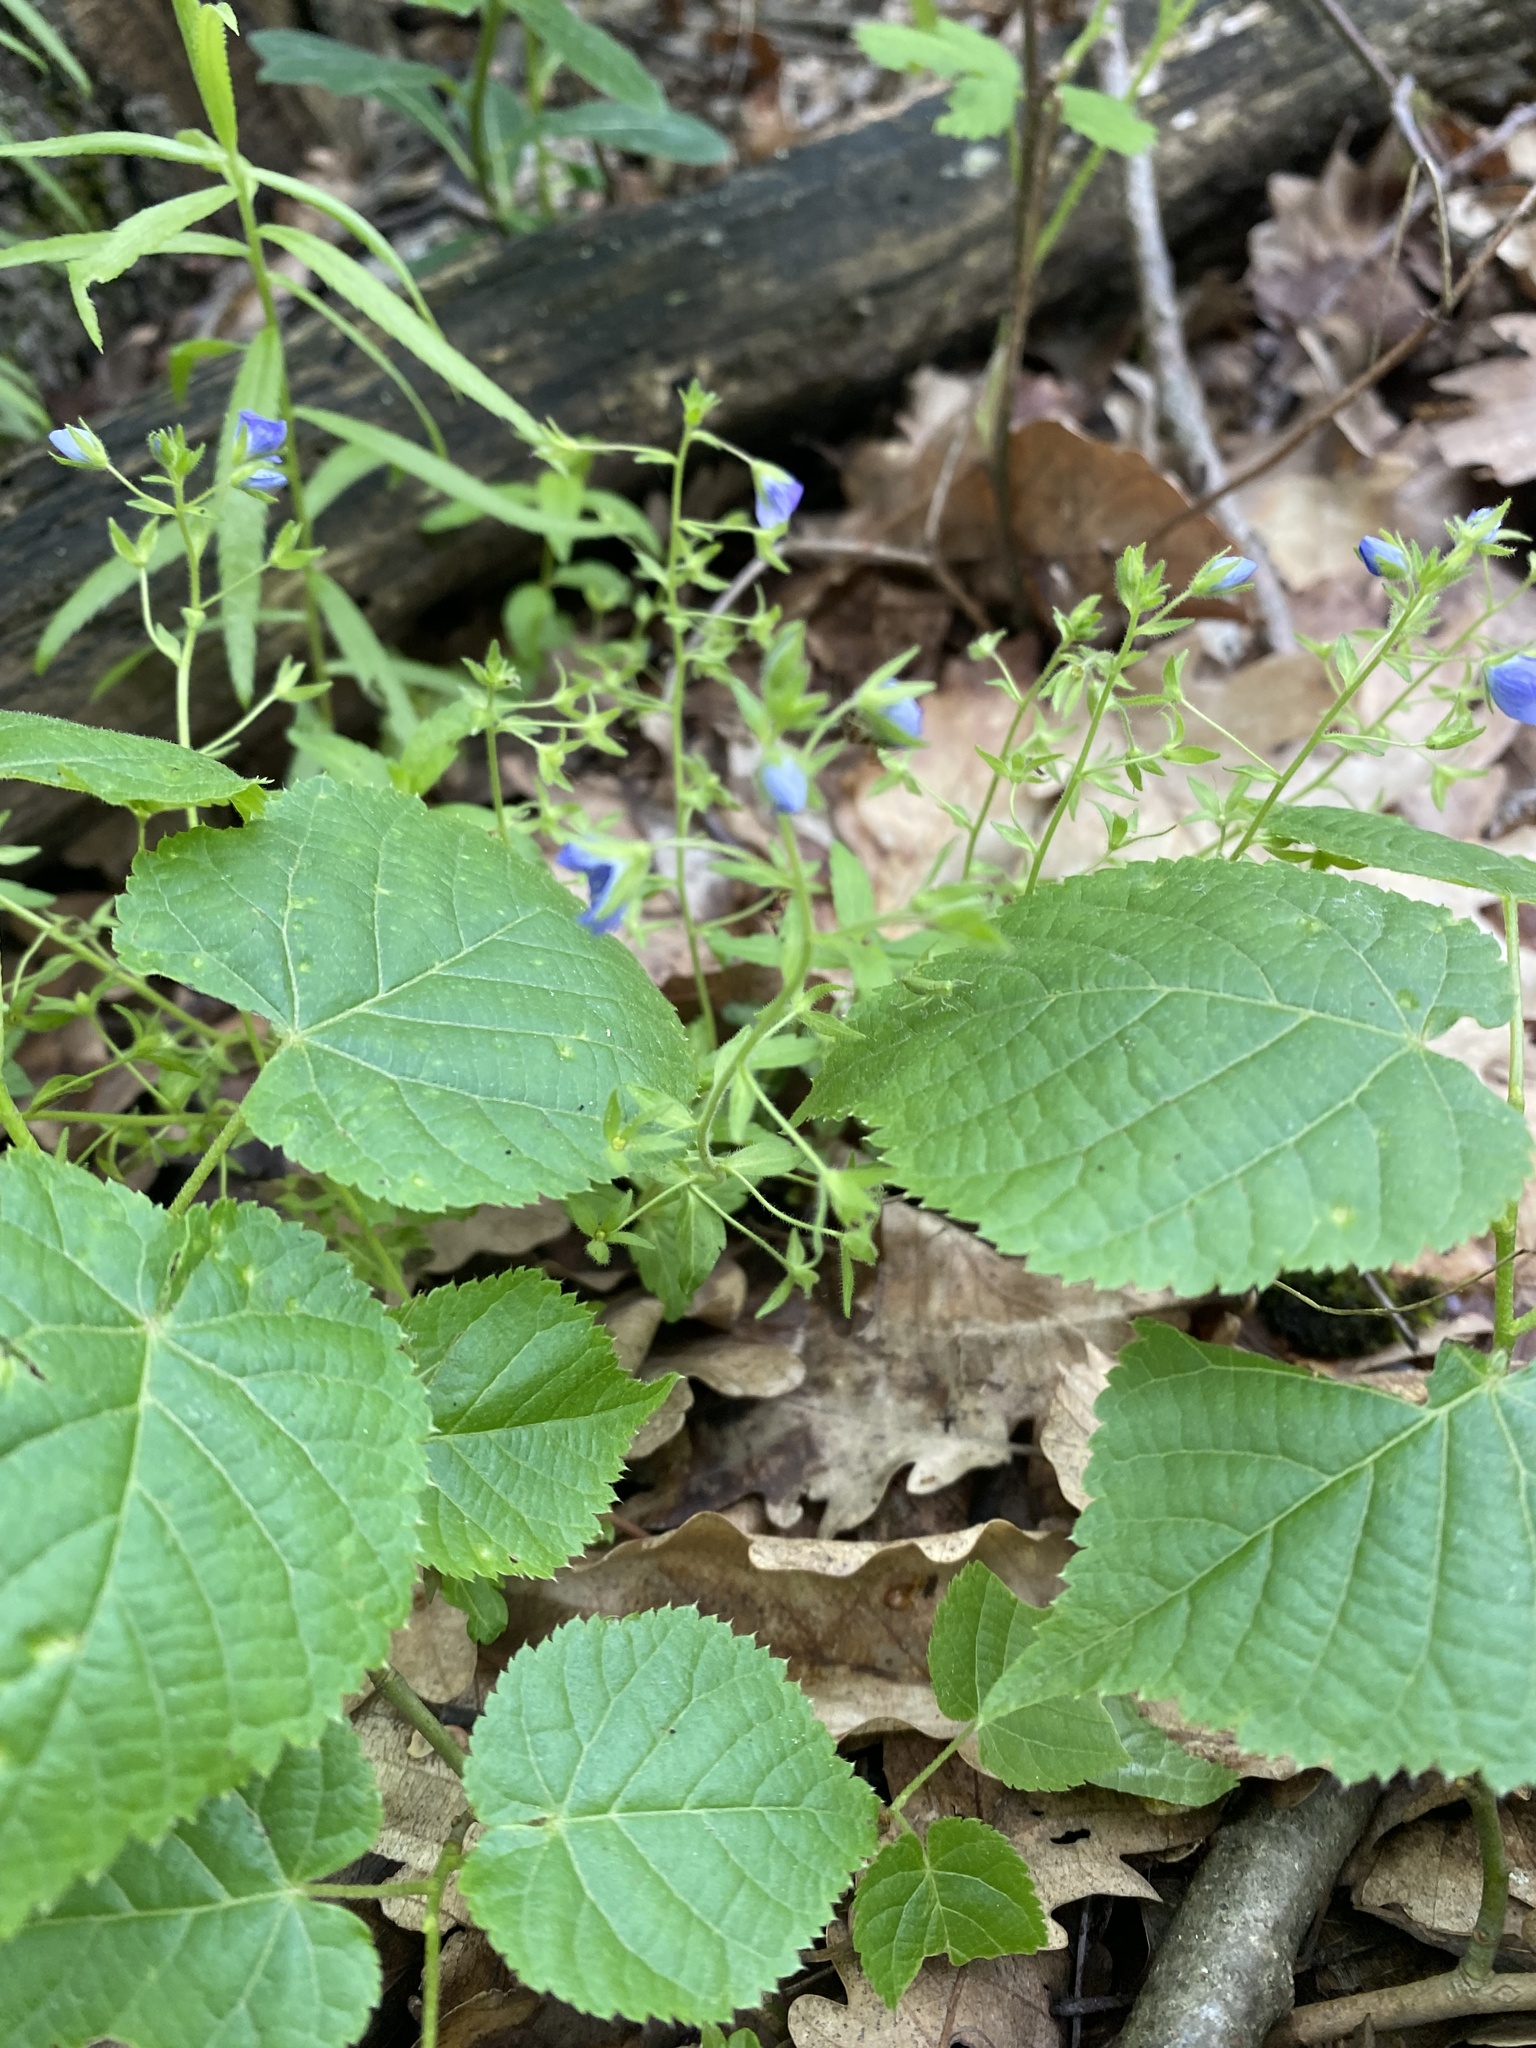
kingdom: Plantae
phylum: Tracheophyta
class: Magnoliopsida
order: Lamiales
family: Plantaginaceae
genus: Veronica
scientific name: Veronica
